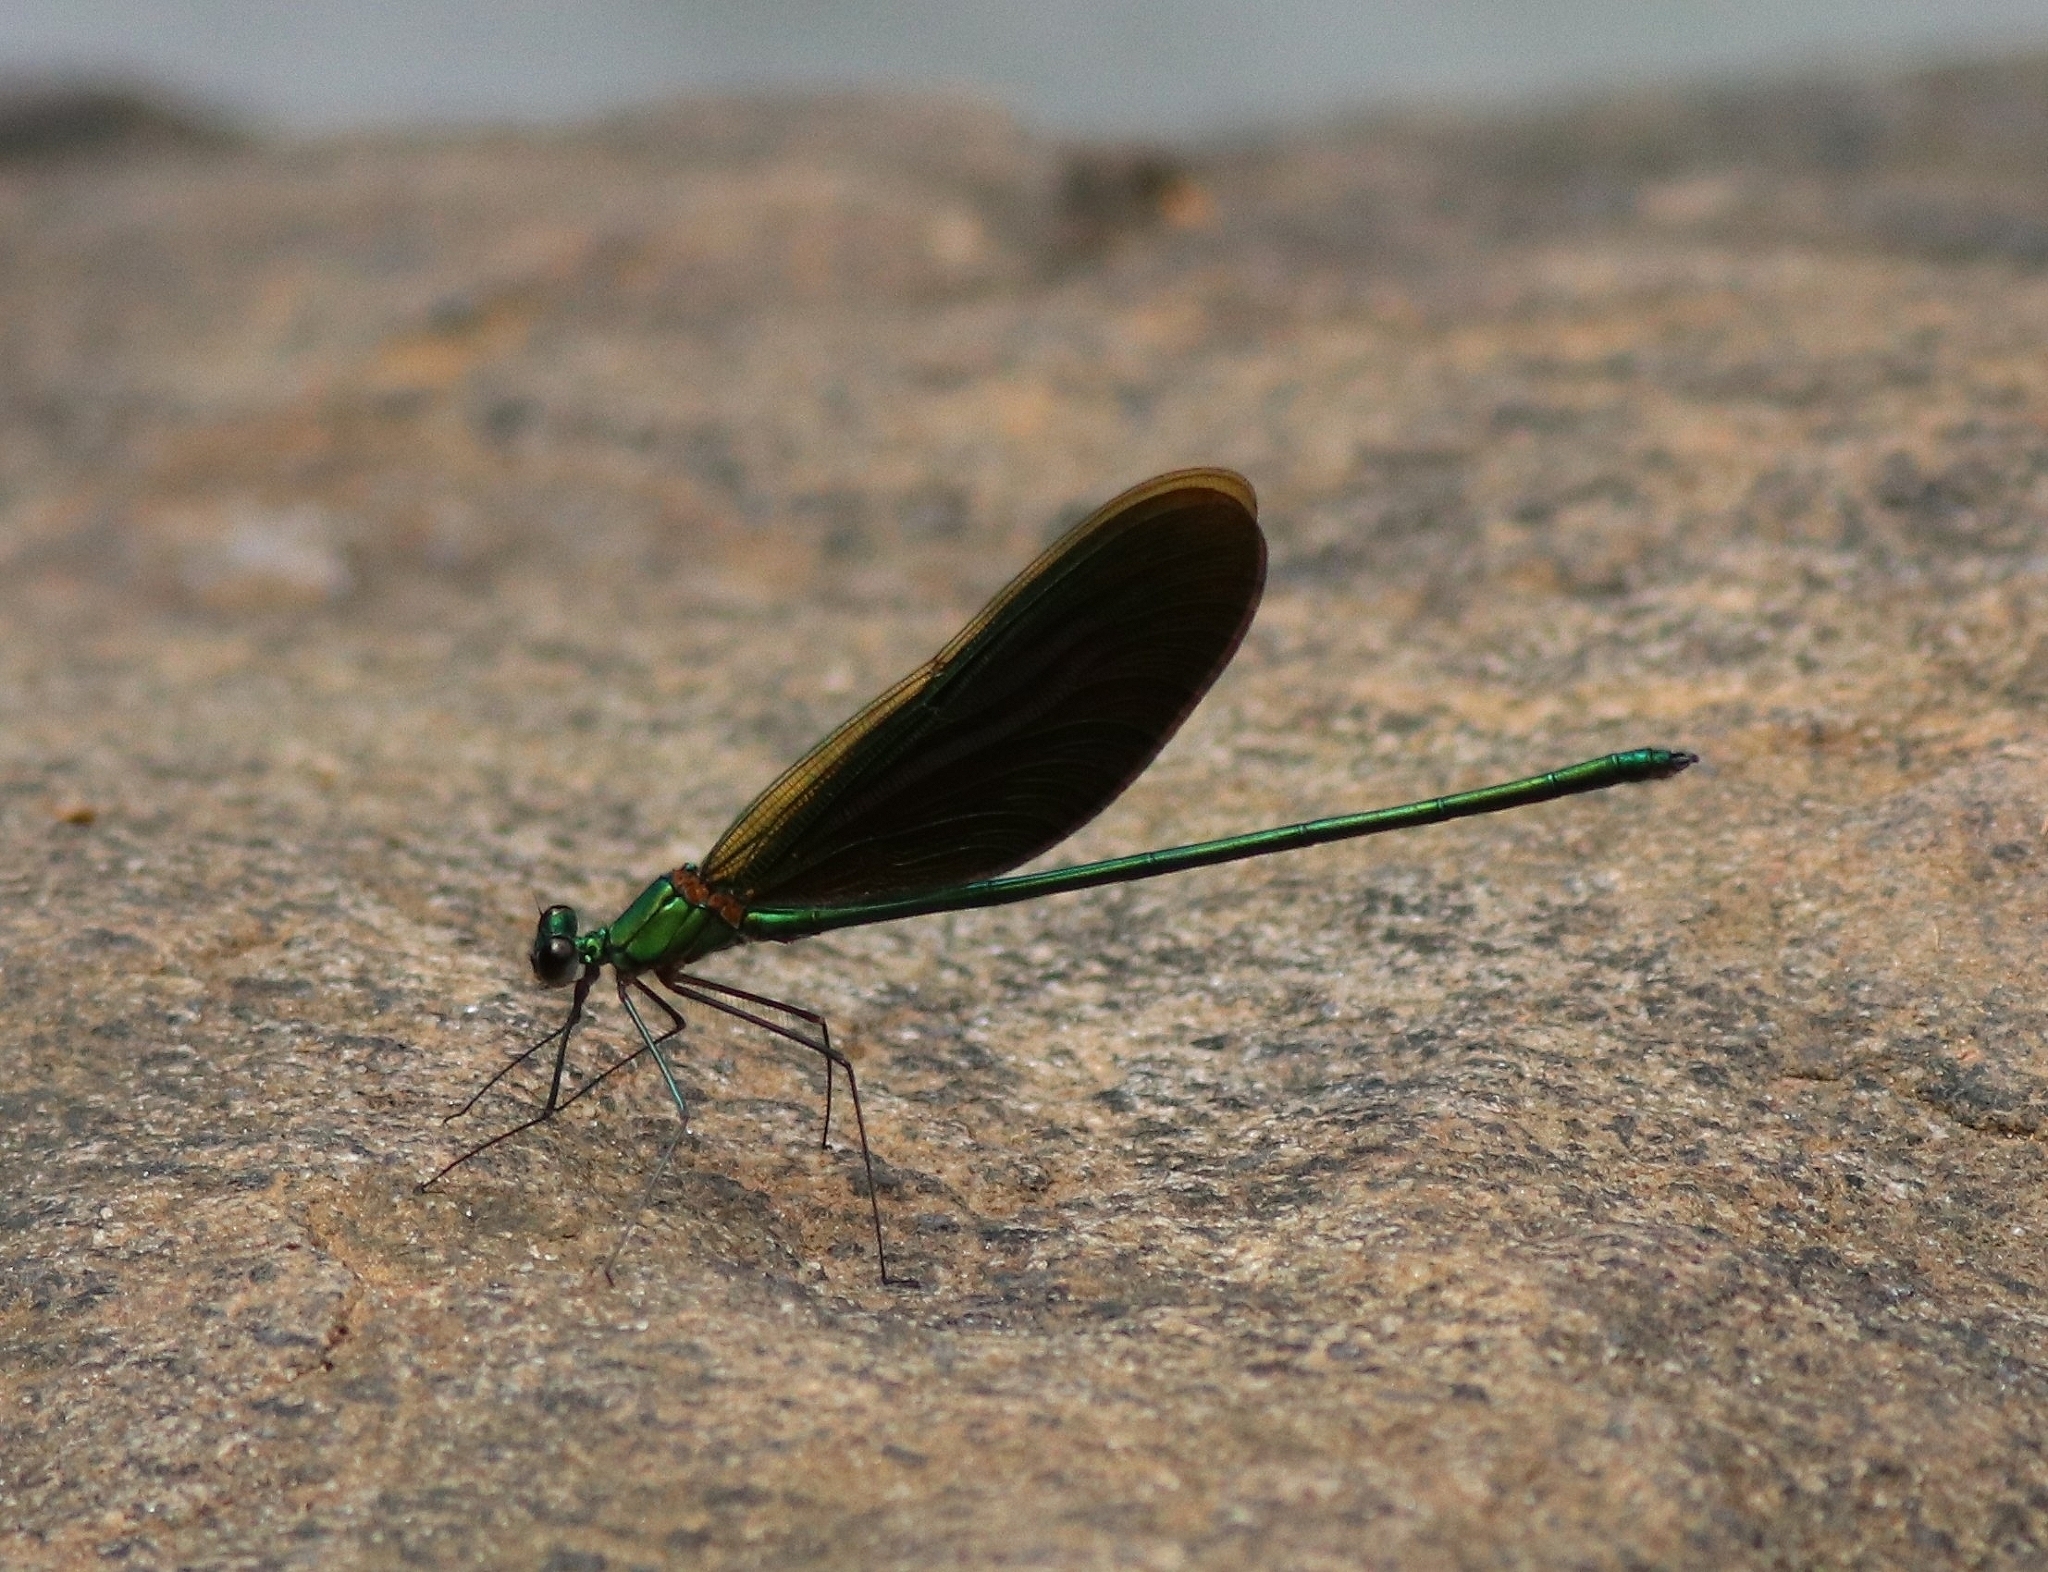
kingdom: Animalia
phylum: Arthropoda
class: Insecta
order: Odonata
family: Calopterygidae
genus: Neurobasis
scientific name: Neurobasis chinensis
